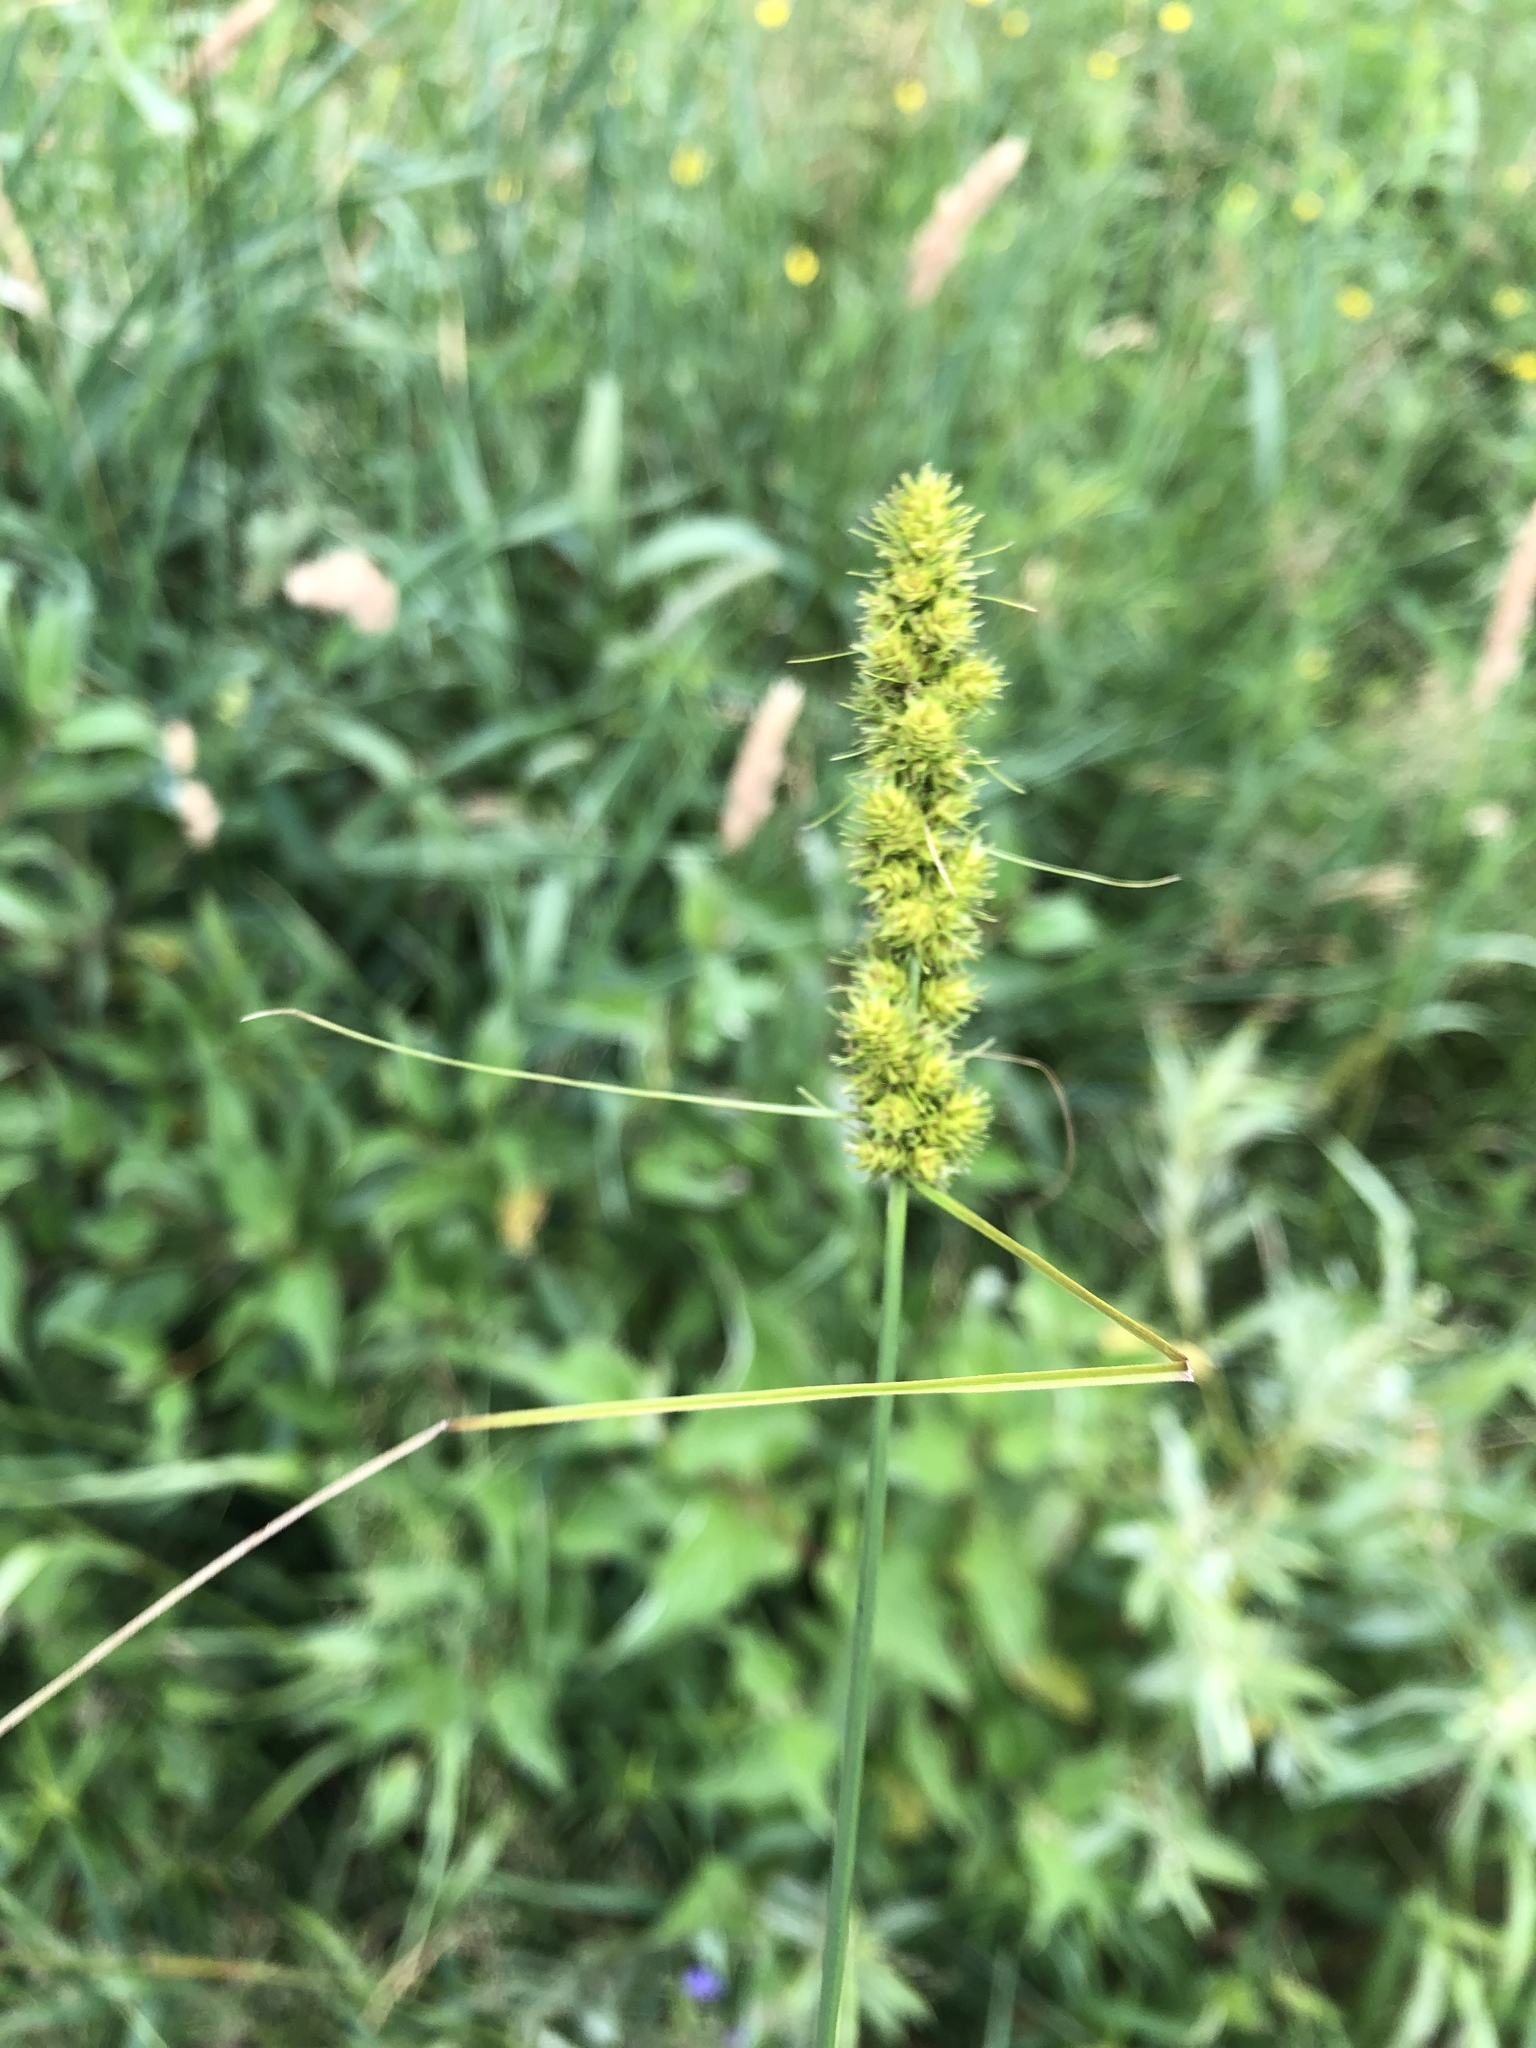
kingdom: Plantae
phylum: Tracheophyta
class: Liliopsida
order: Poales
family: Cyperaceae
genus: Carex
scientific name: Carex vulpinoidea
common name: American fox-sedge
